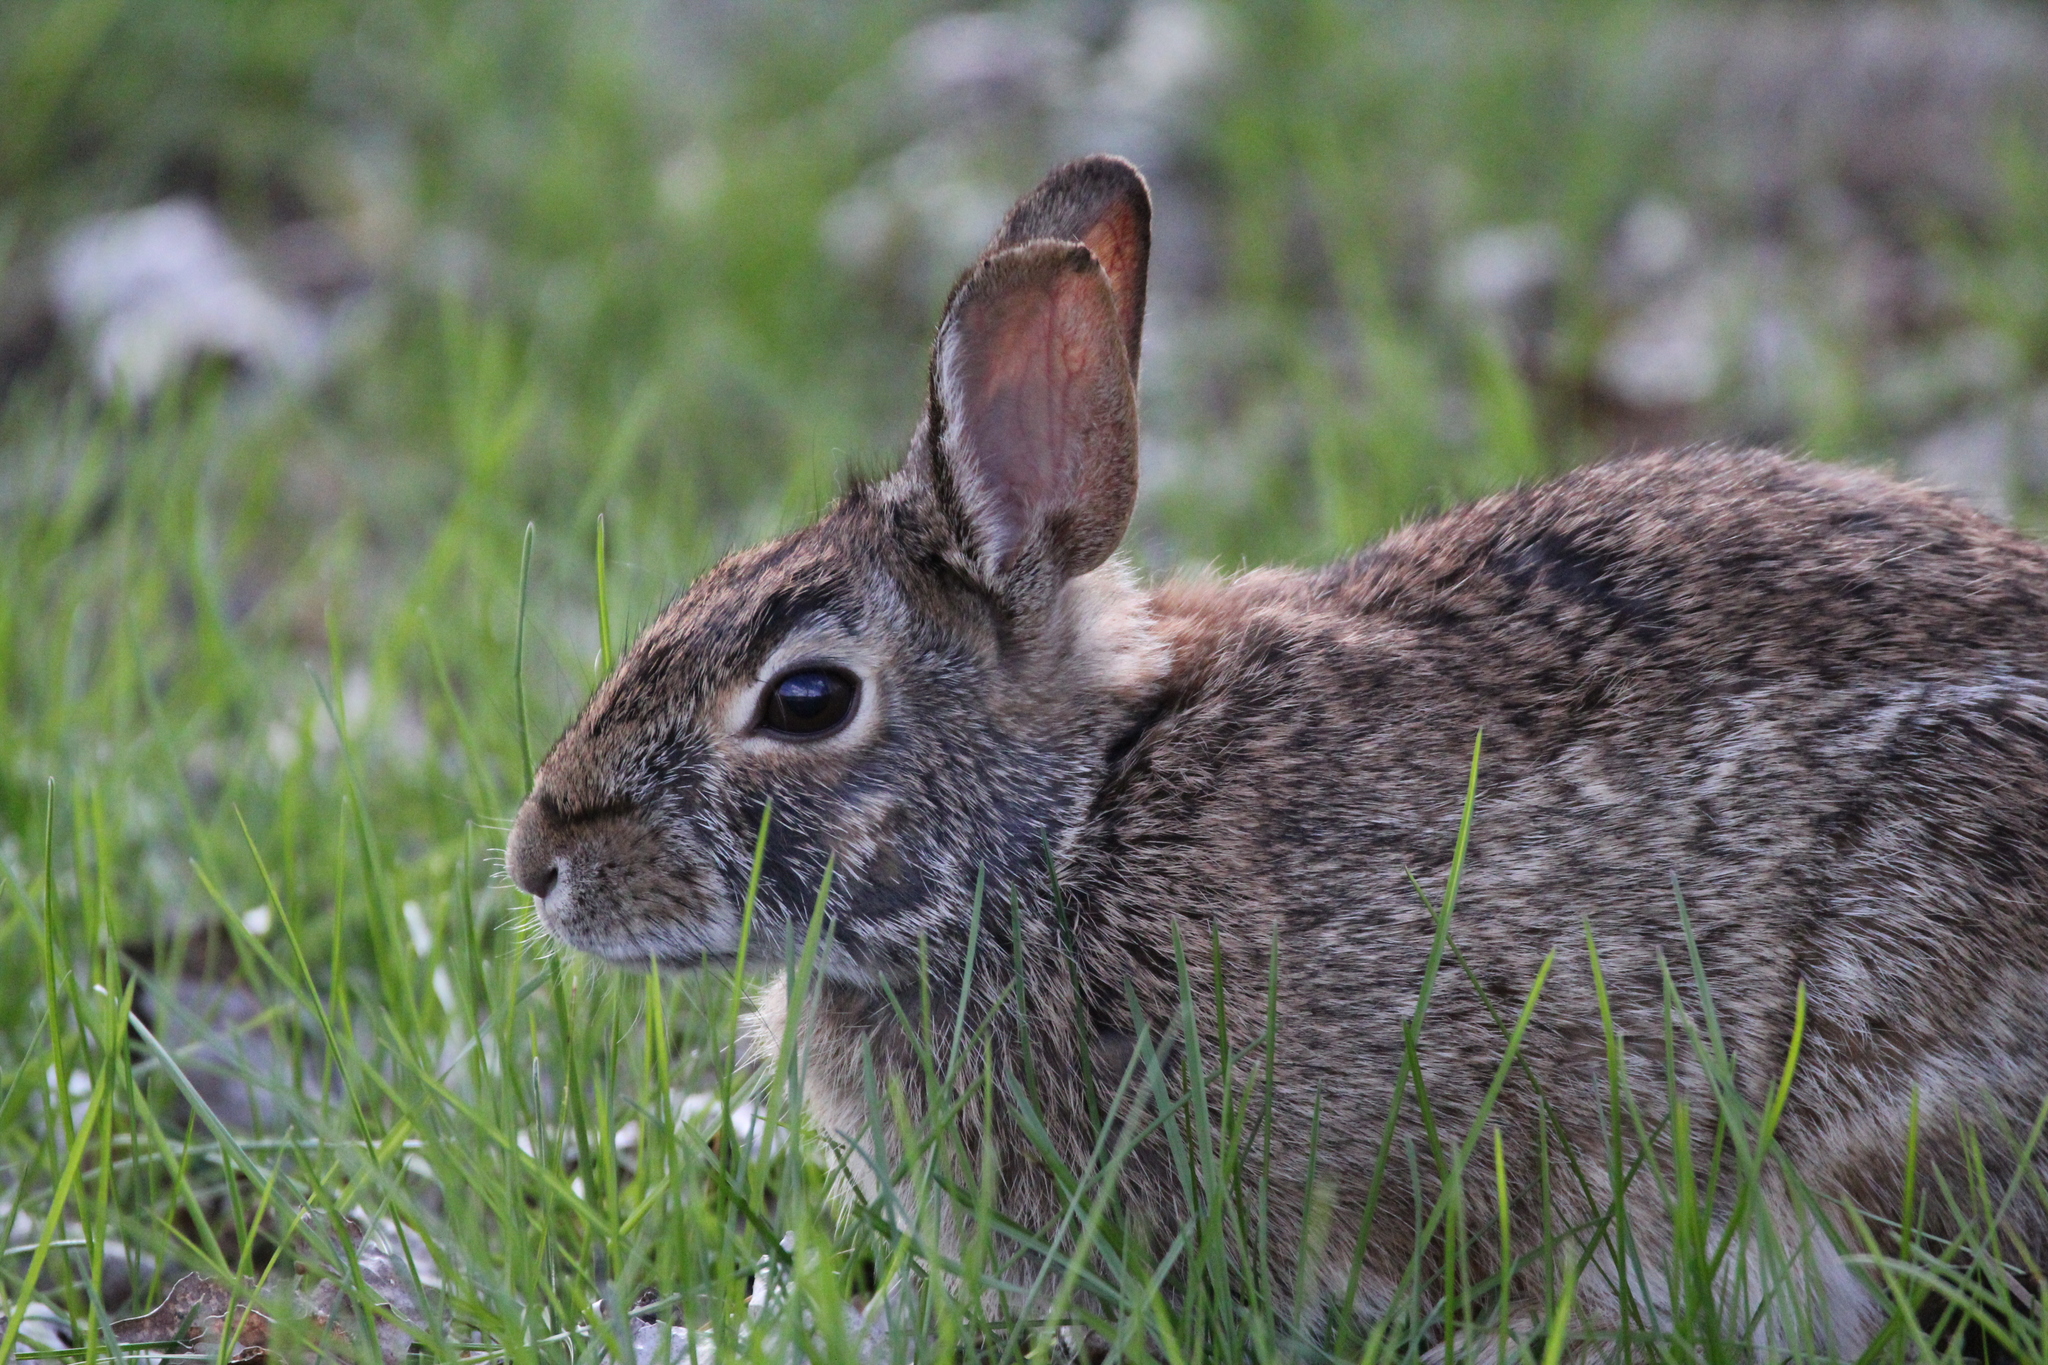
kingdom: Animalia
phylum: Chordata
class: Mammalia
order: Lagomorpha
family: Leporidae
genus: Sylvilagus
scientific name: Sylvilagus floridanus
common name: Eastern cottontail
